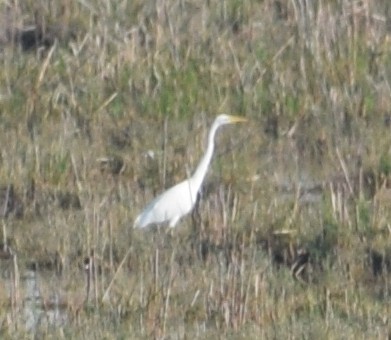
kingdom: Animalia
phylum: Chordata
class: Aves
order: Pelecaniformes
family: Ardeidae
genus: Ardea
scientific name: Ardea alba
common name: Great egret
